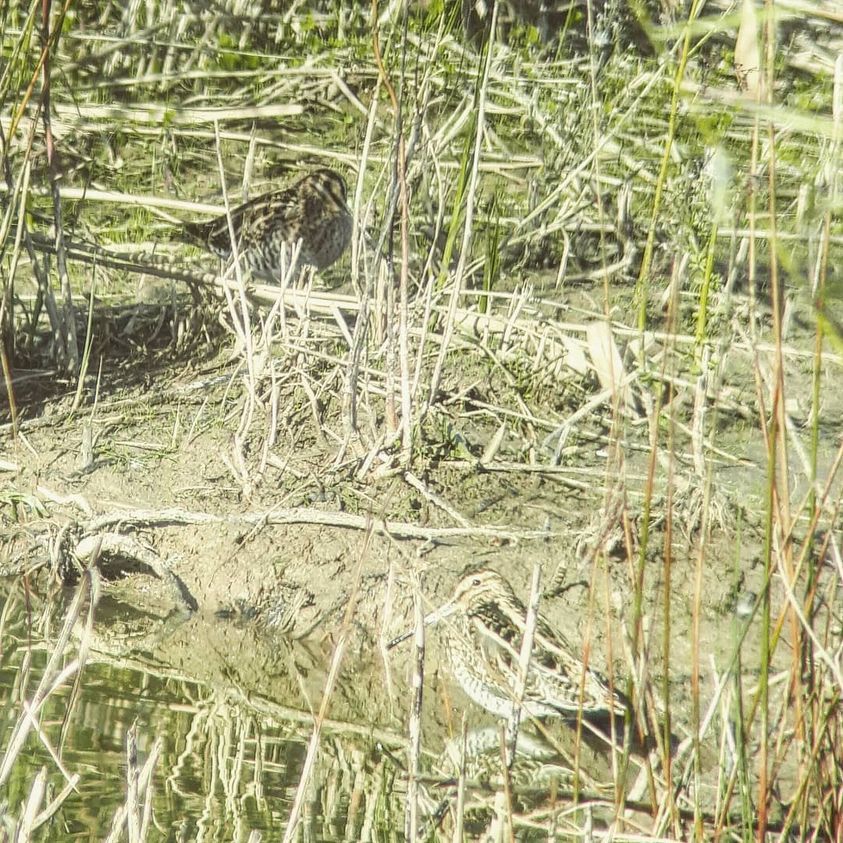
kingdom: Animalia
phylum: Chordata
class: Aves
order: Charadriiformes
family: Scolopacidae
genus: Gallinago
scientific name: Gallinago gallinago
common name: Common snipe
